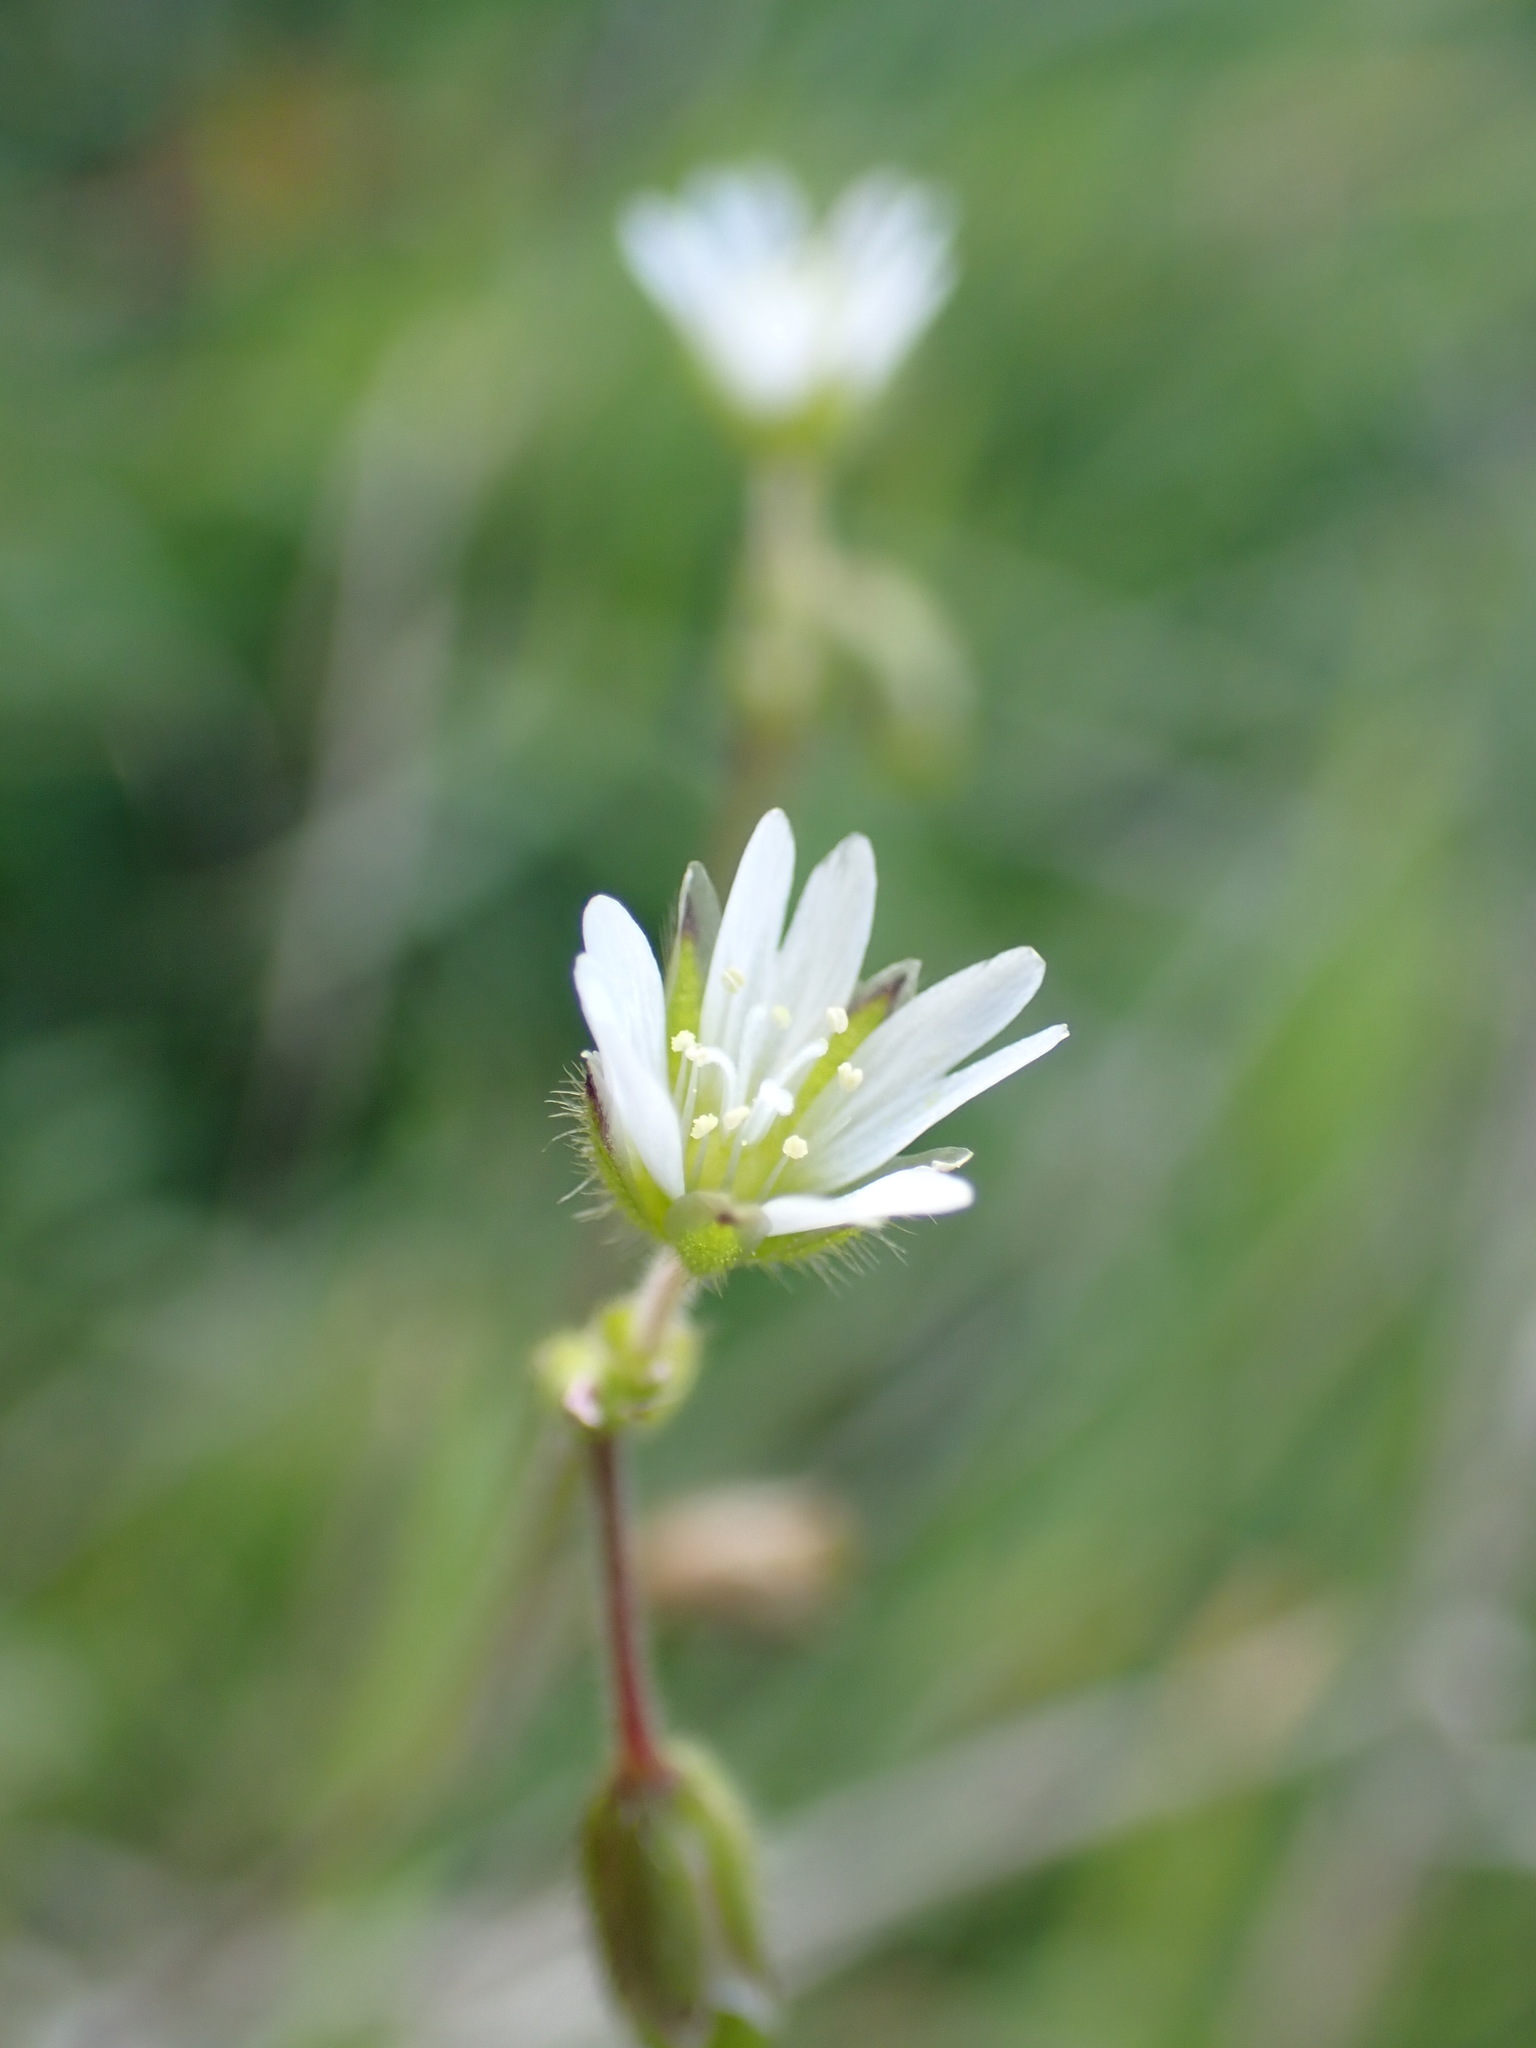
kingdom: Plantae
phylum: Tracheophyta
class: Magnoliopsida
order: Caryophyllales
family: Caryophyllaceae
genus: Cerastium
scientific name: Cerastium fontanum
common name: Common mouse-ear
